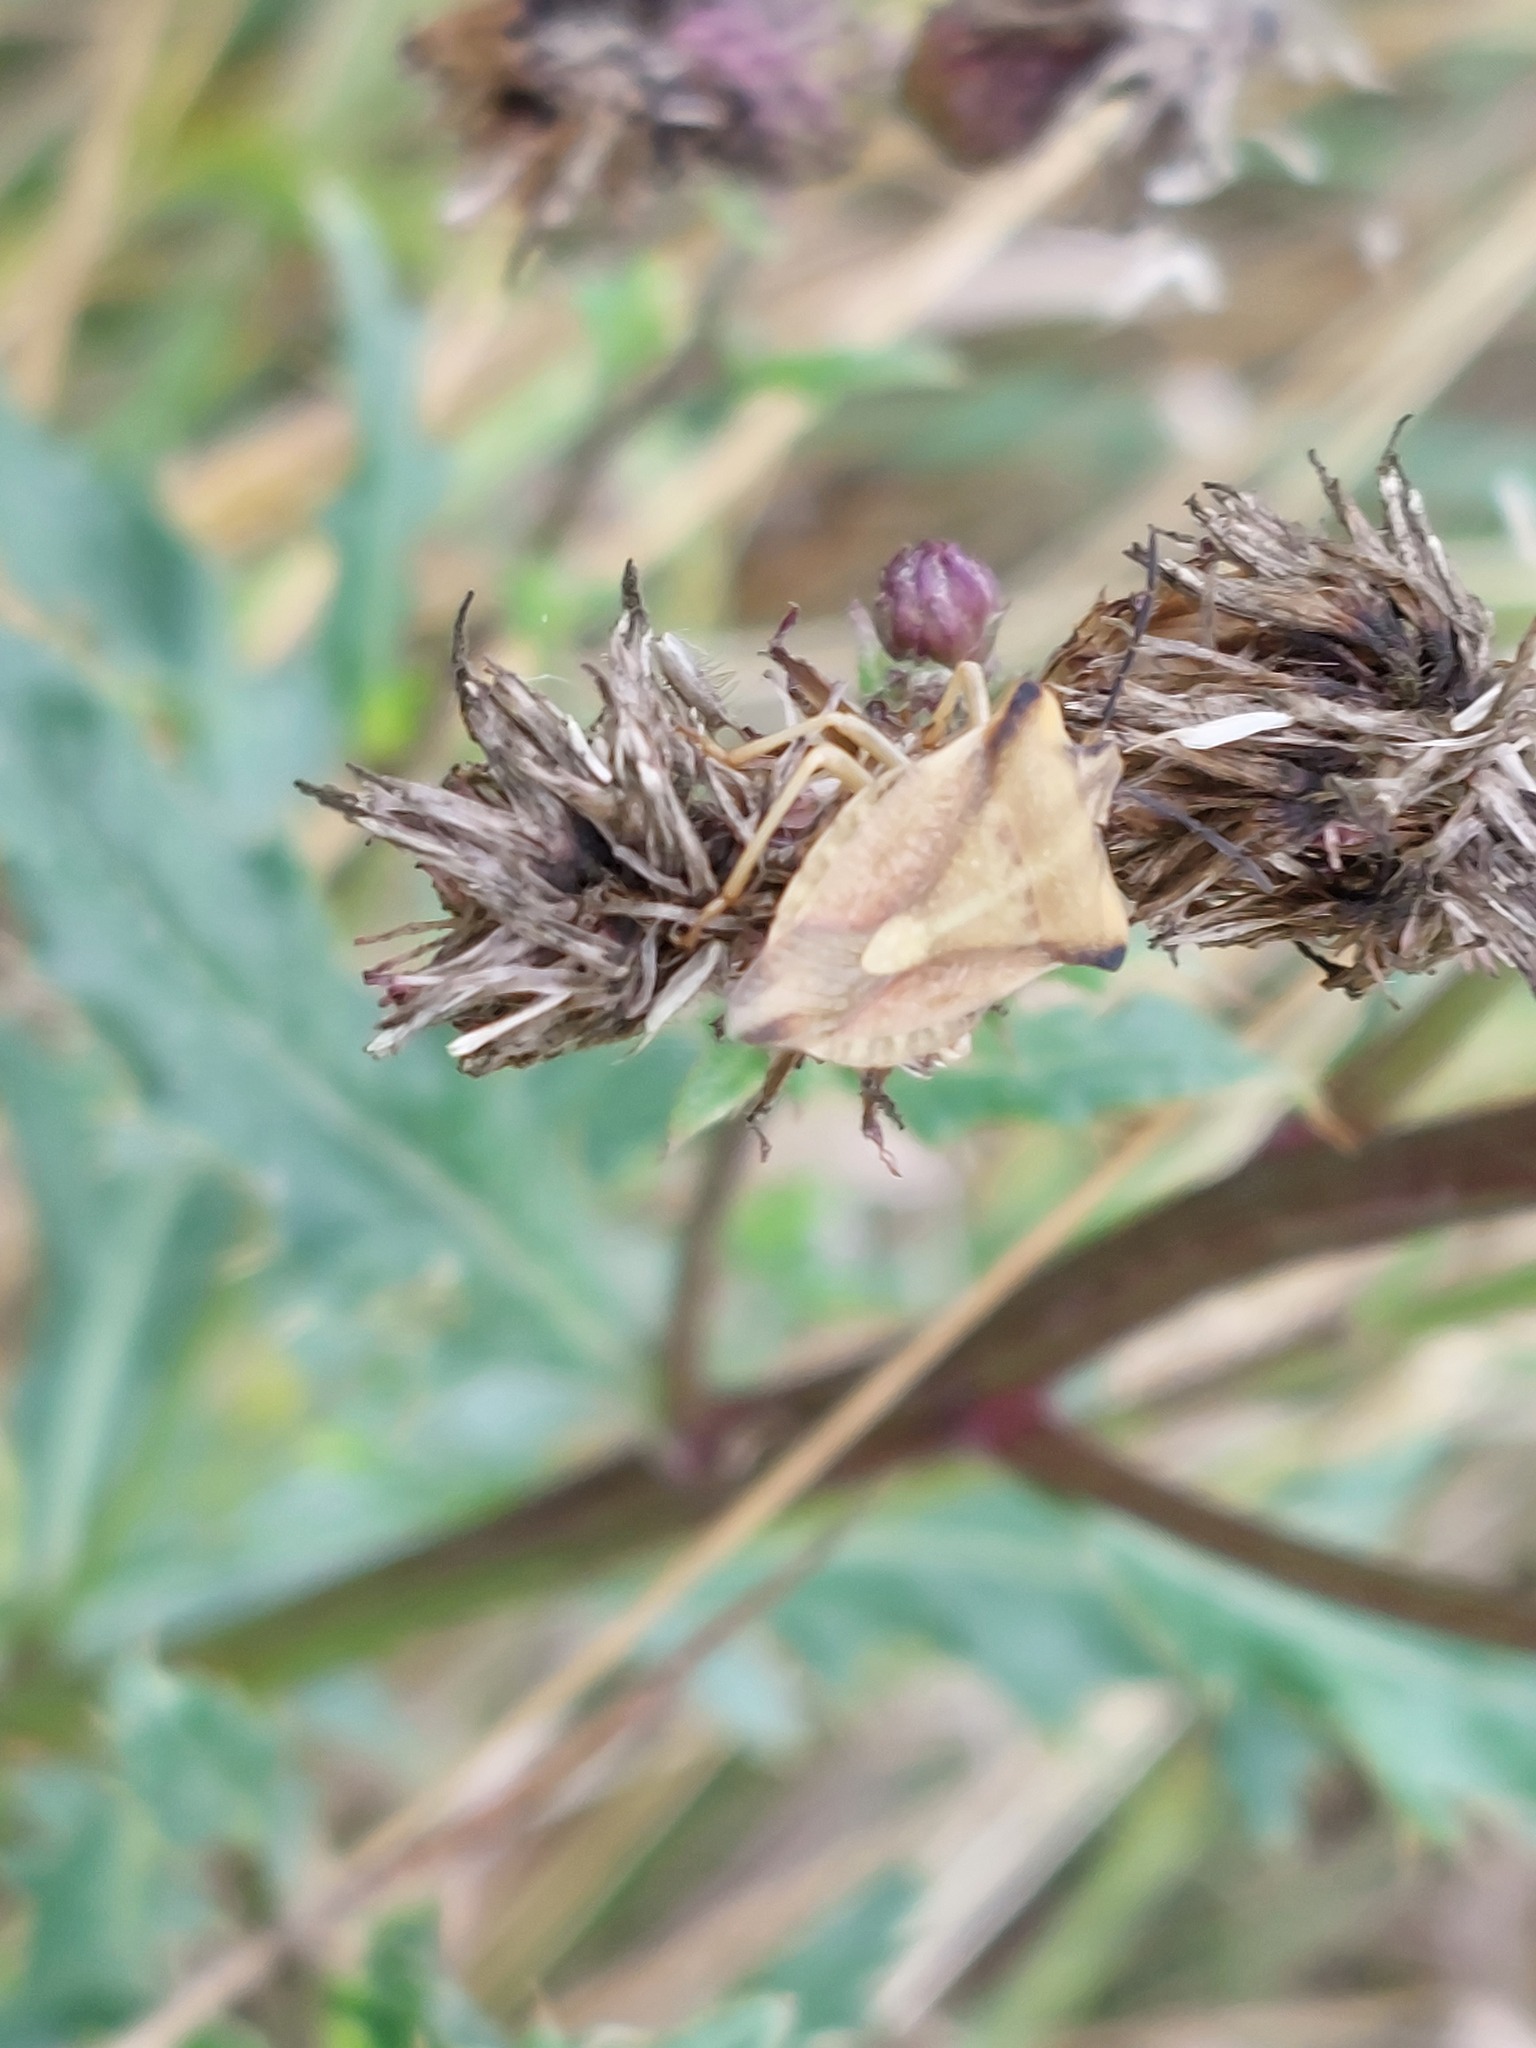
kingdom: Animalia
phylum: Arthropoda
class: Insecta
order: Hemiptera
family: Pentatomidae
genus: Carpocoris
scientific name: Carpocoris fuscispinus
